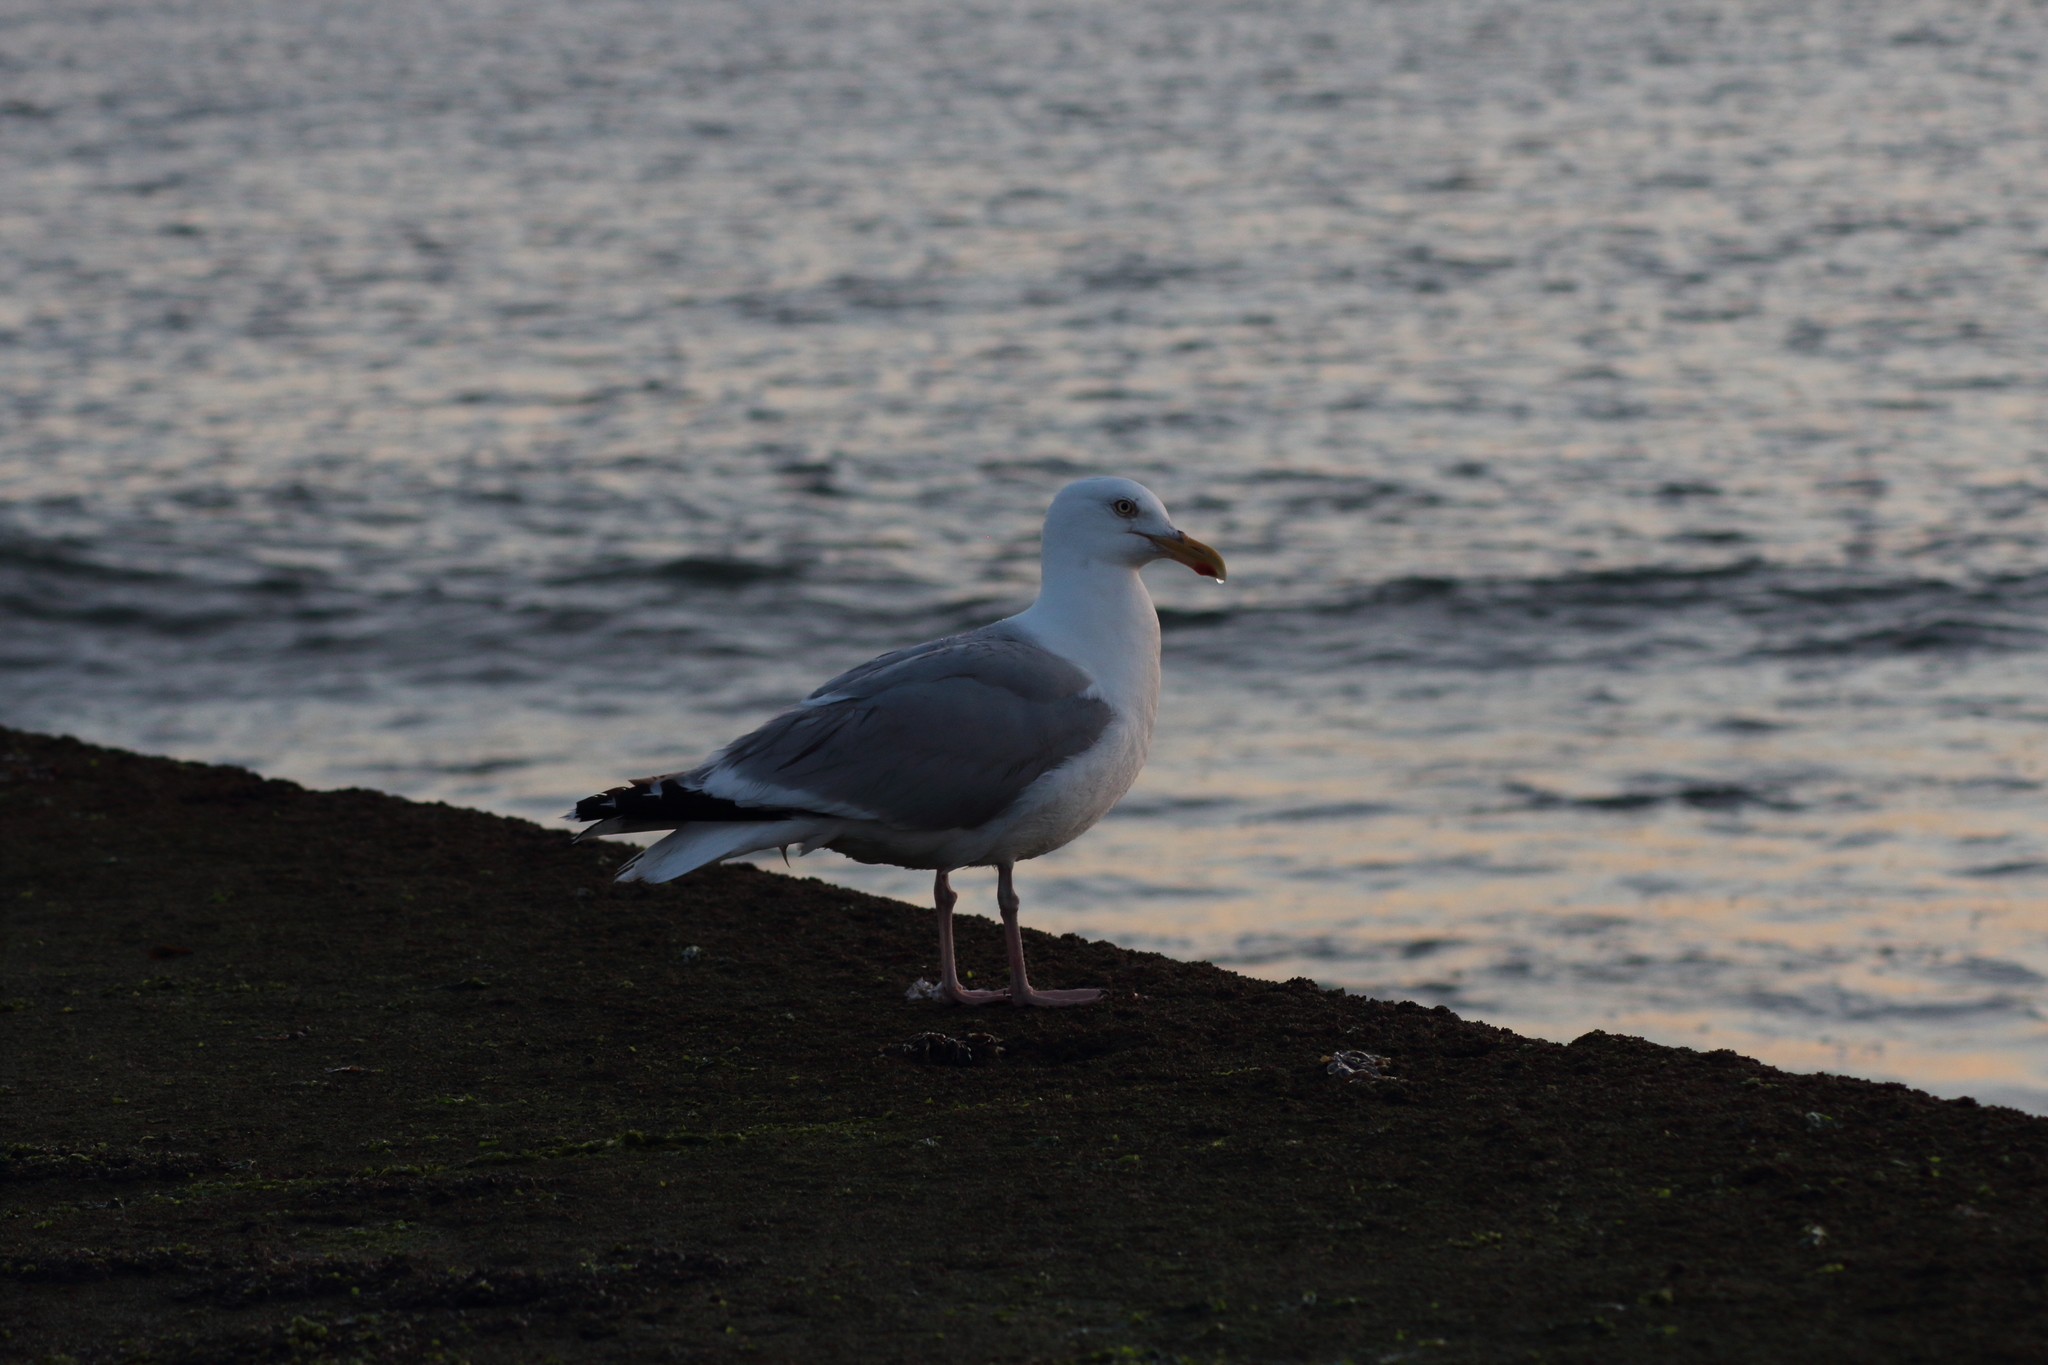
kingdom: Animalia
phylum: Chordata
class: Aves
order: Charadriiformes
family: Laridae
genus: Larus
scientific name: Larus argentatus
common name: Herring gull
